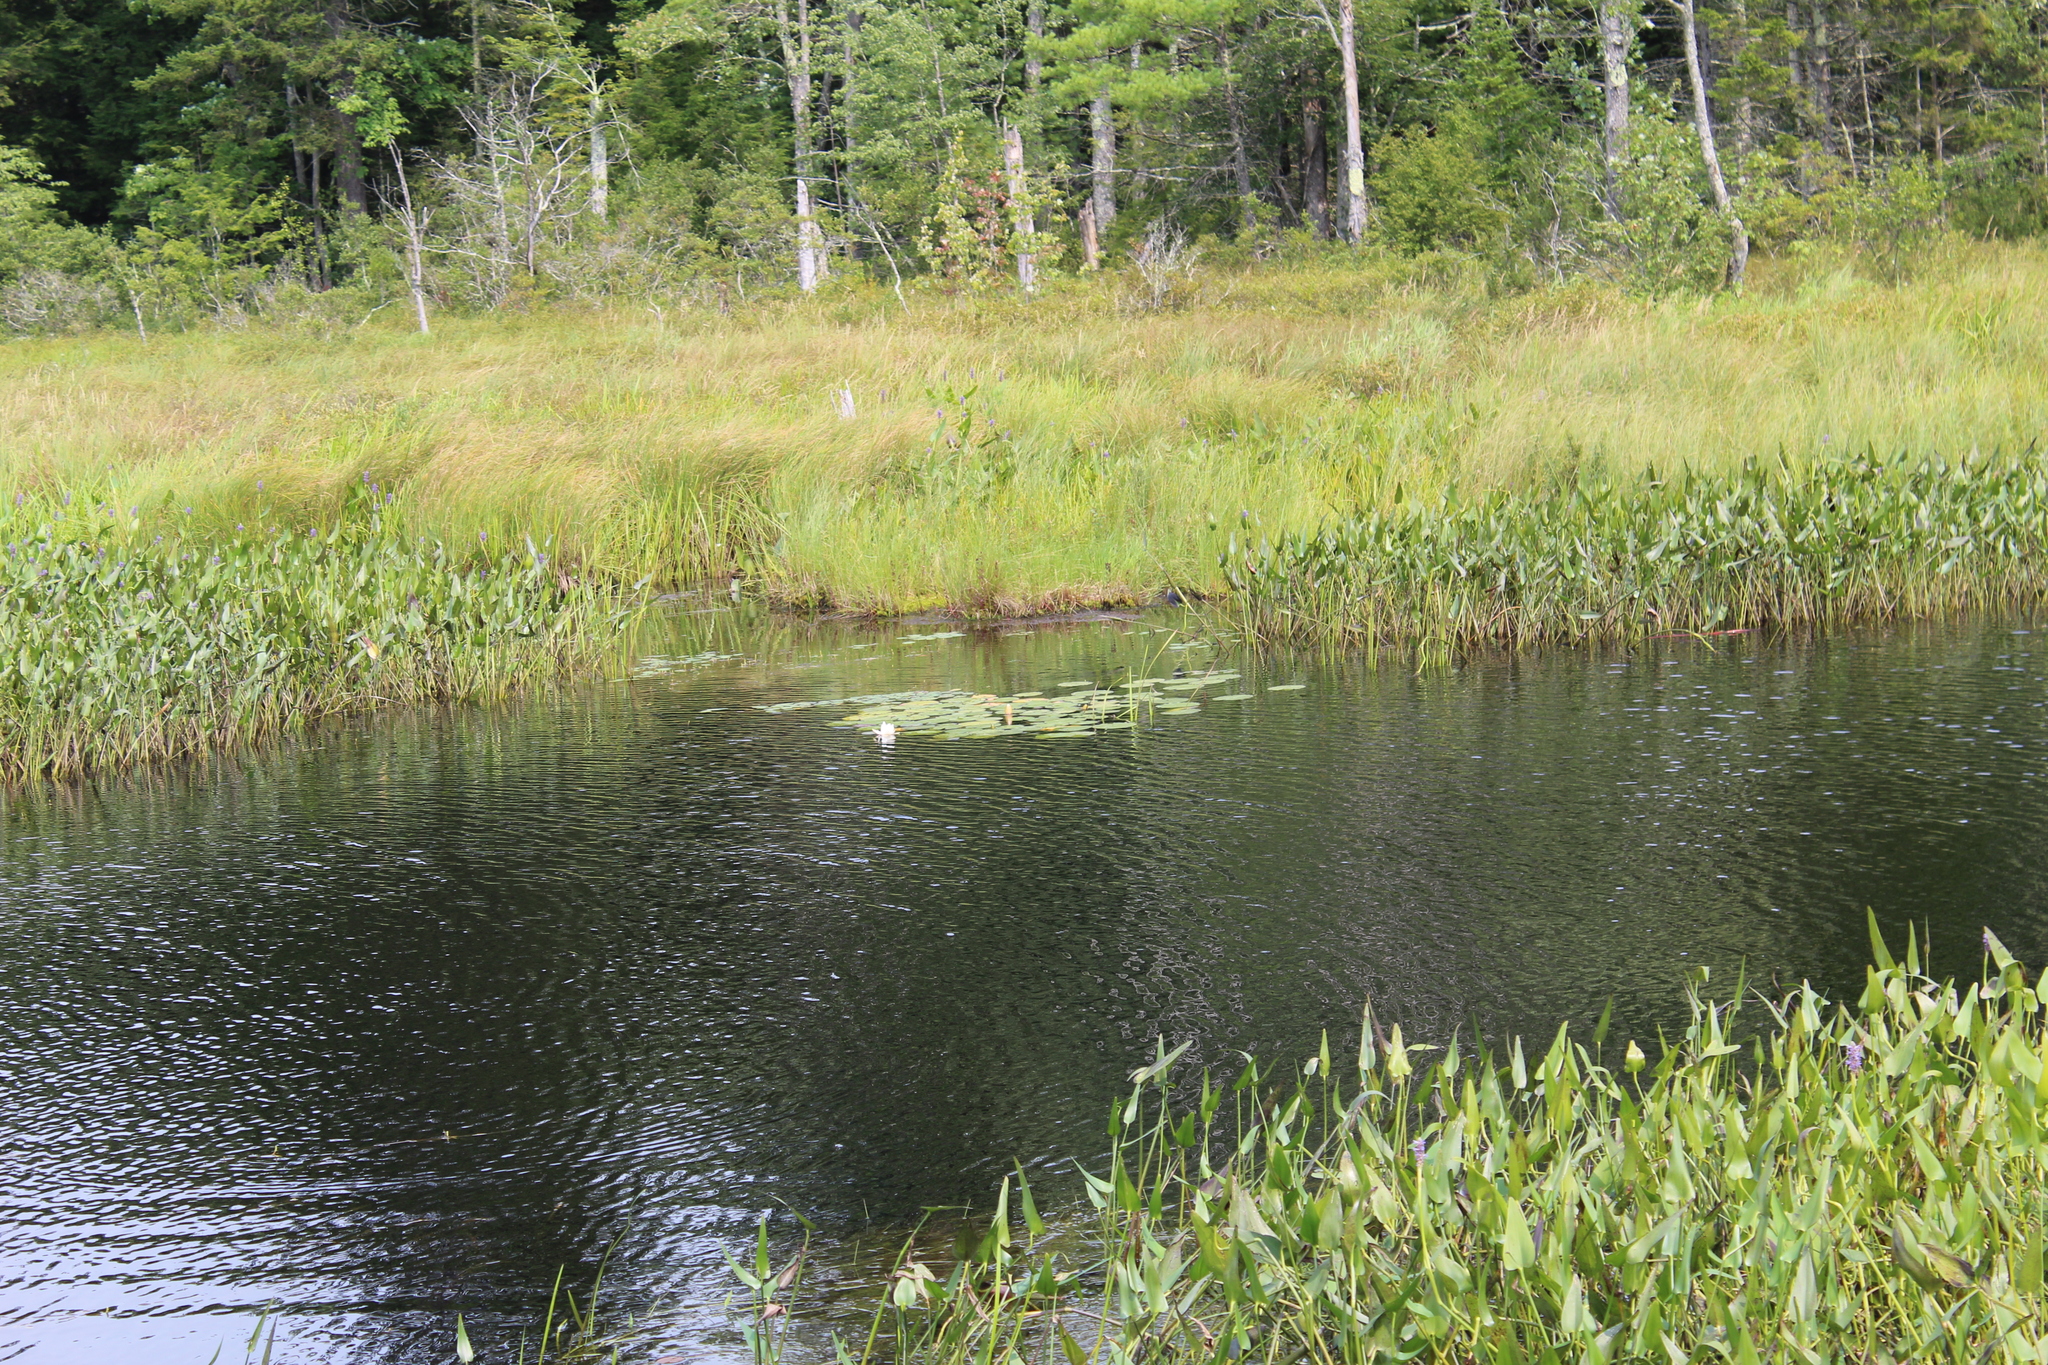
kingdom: Plantae
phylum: Tracheophyta
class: Magnoliopsida
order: Nymphaeales
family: Nymphaeaceae
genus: Nymphaea
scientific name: Nymphaea odorata
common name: Fragrant water-lily
